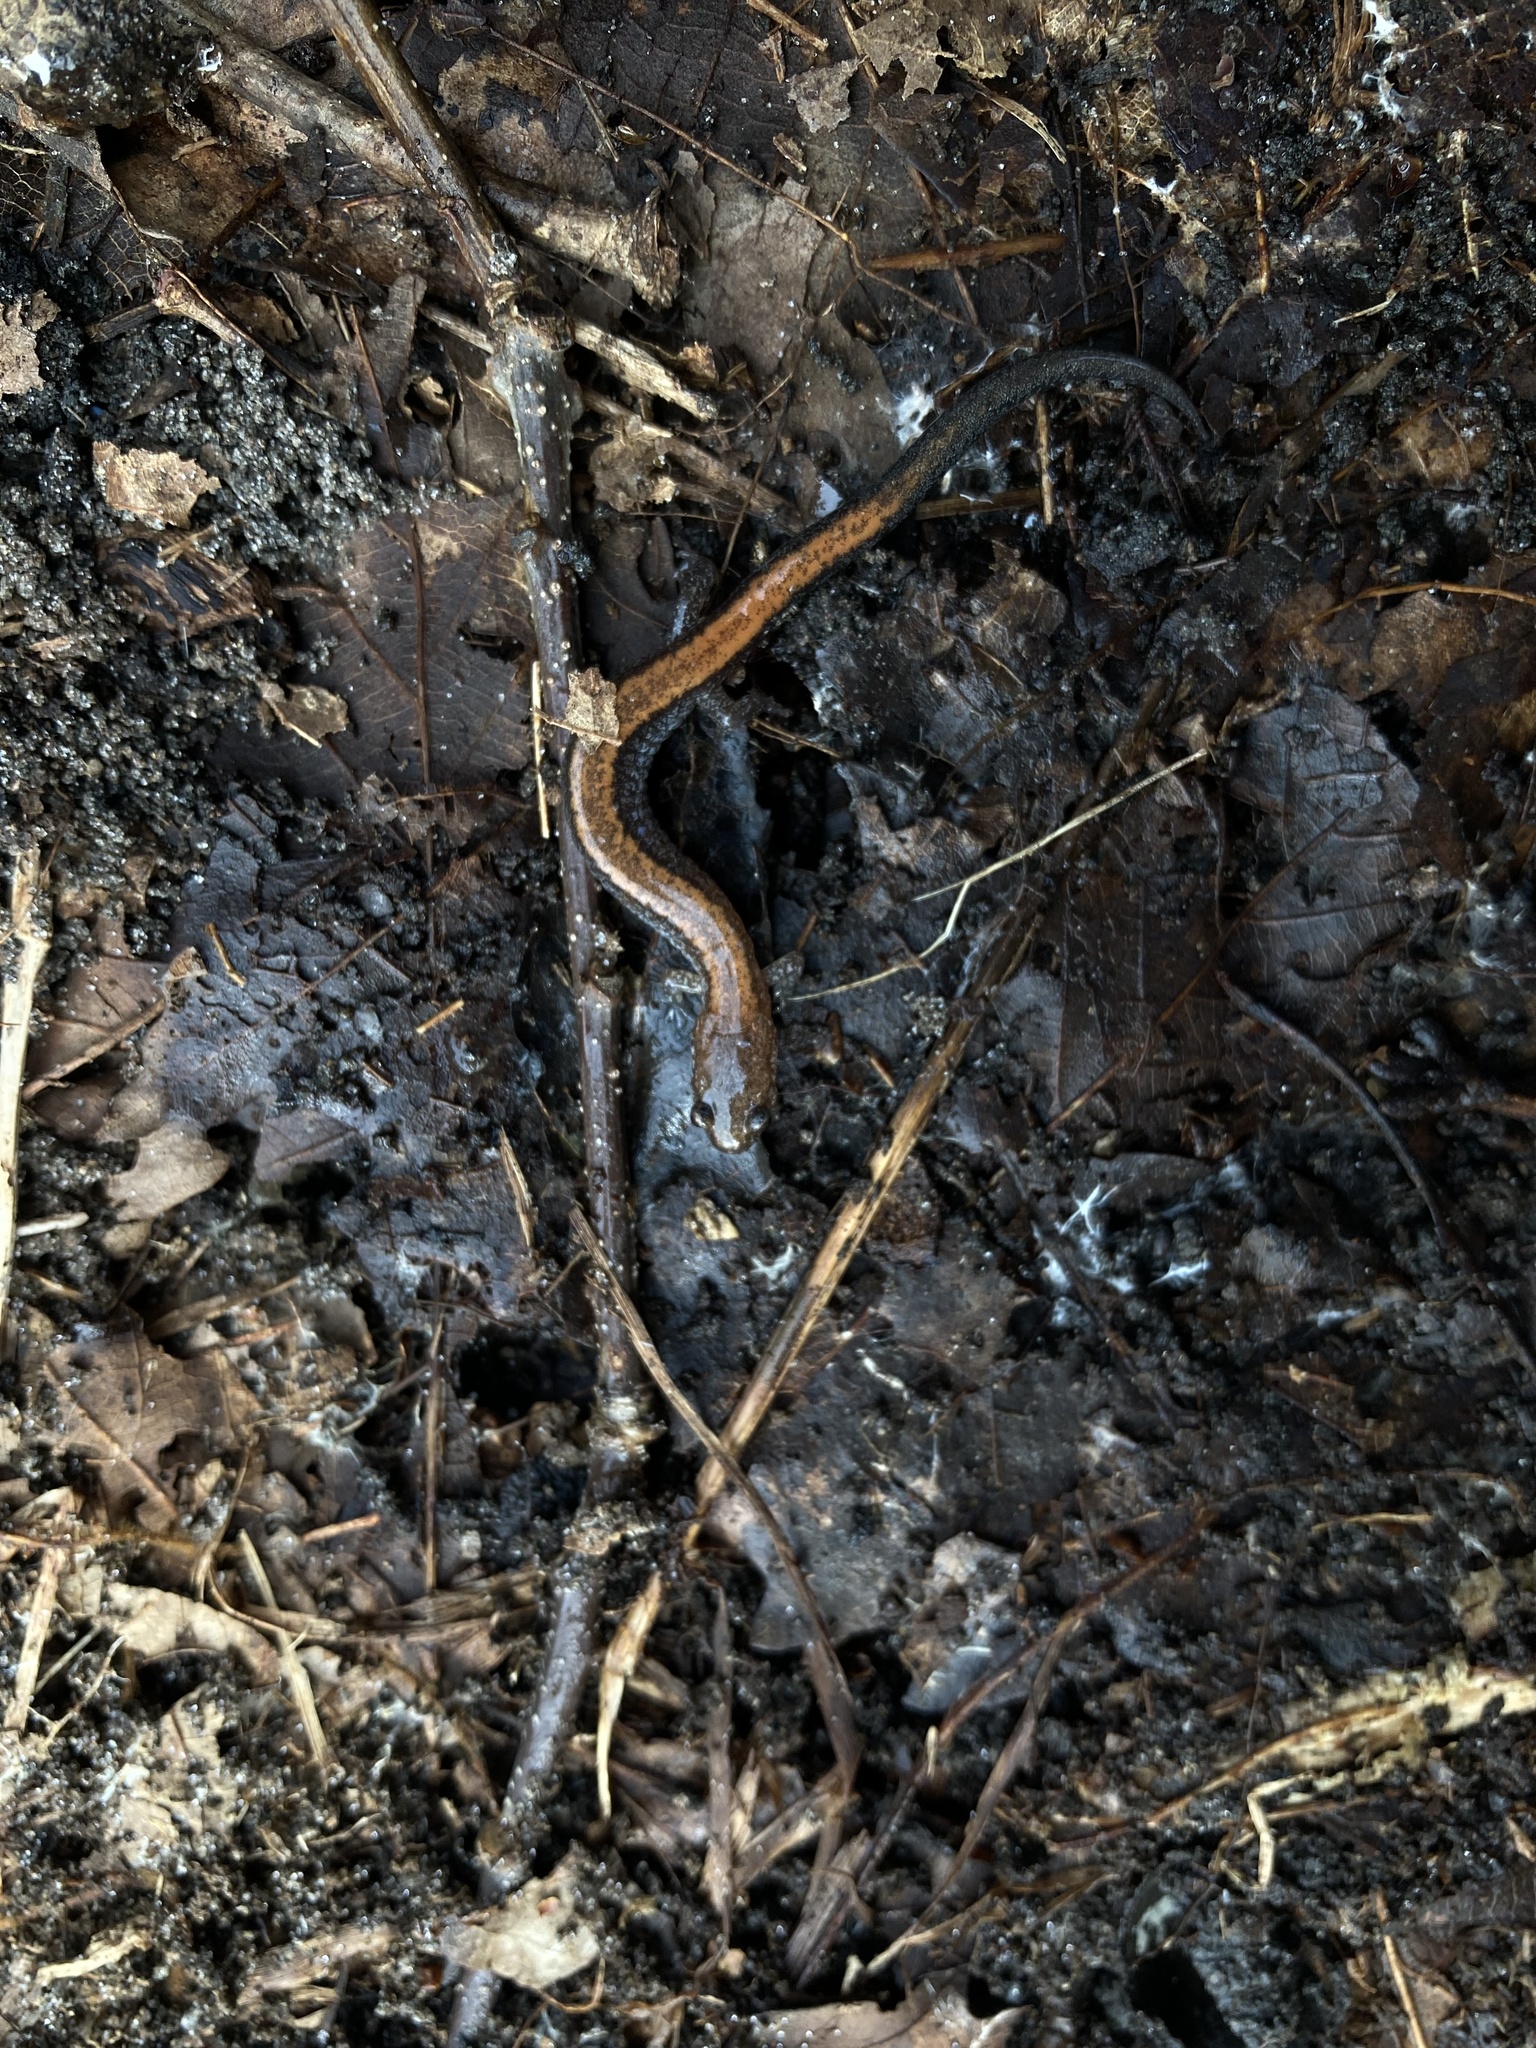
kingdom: Animalia
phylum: Chordata
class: Amphibia
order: Caudata
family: Plethodontidae
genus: Plethodon
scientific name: Plethodon cinereus
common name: Redback salamander
